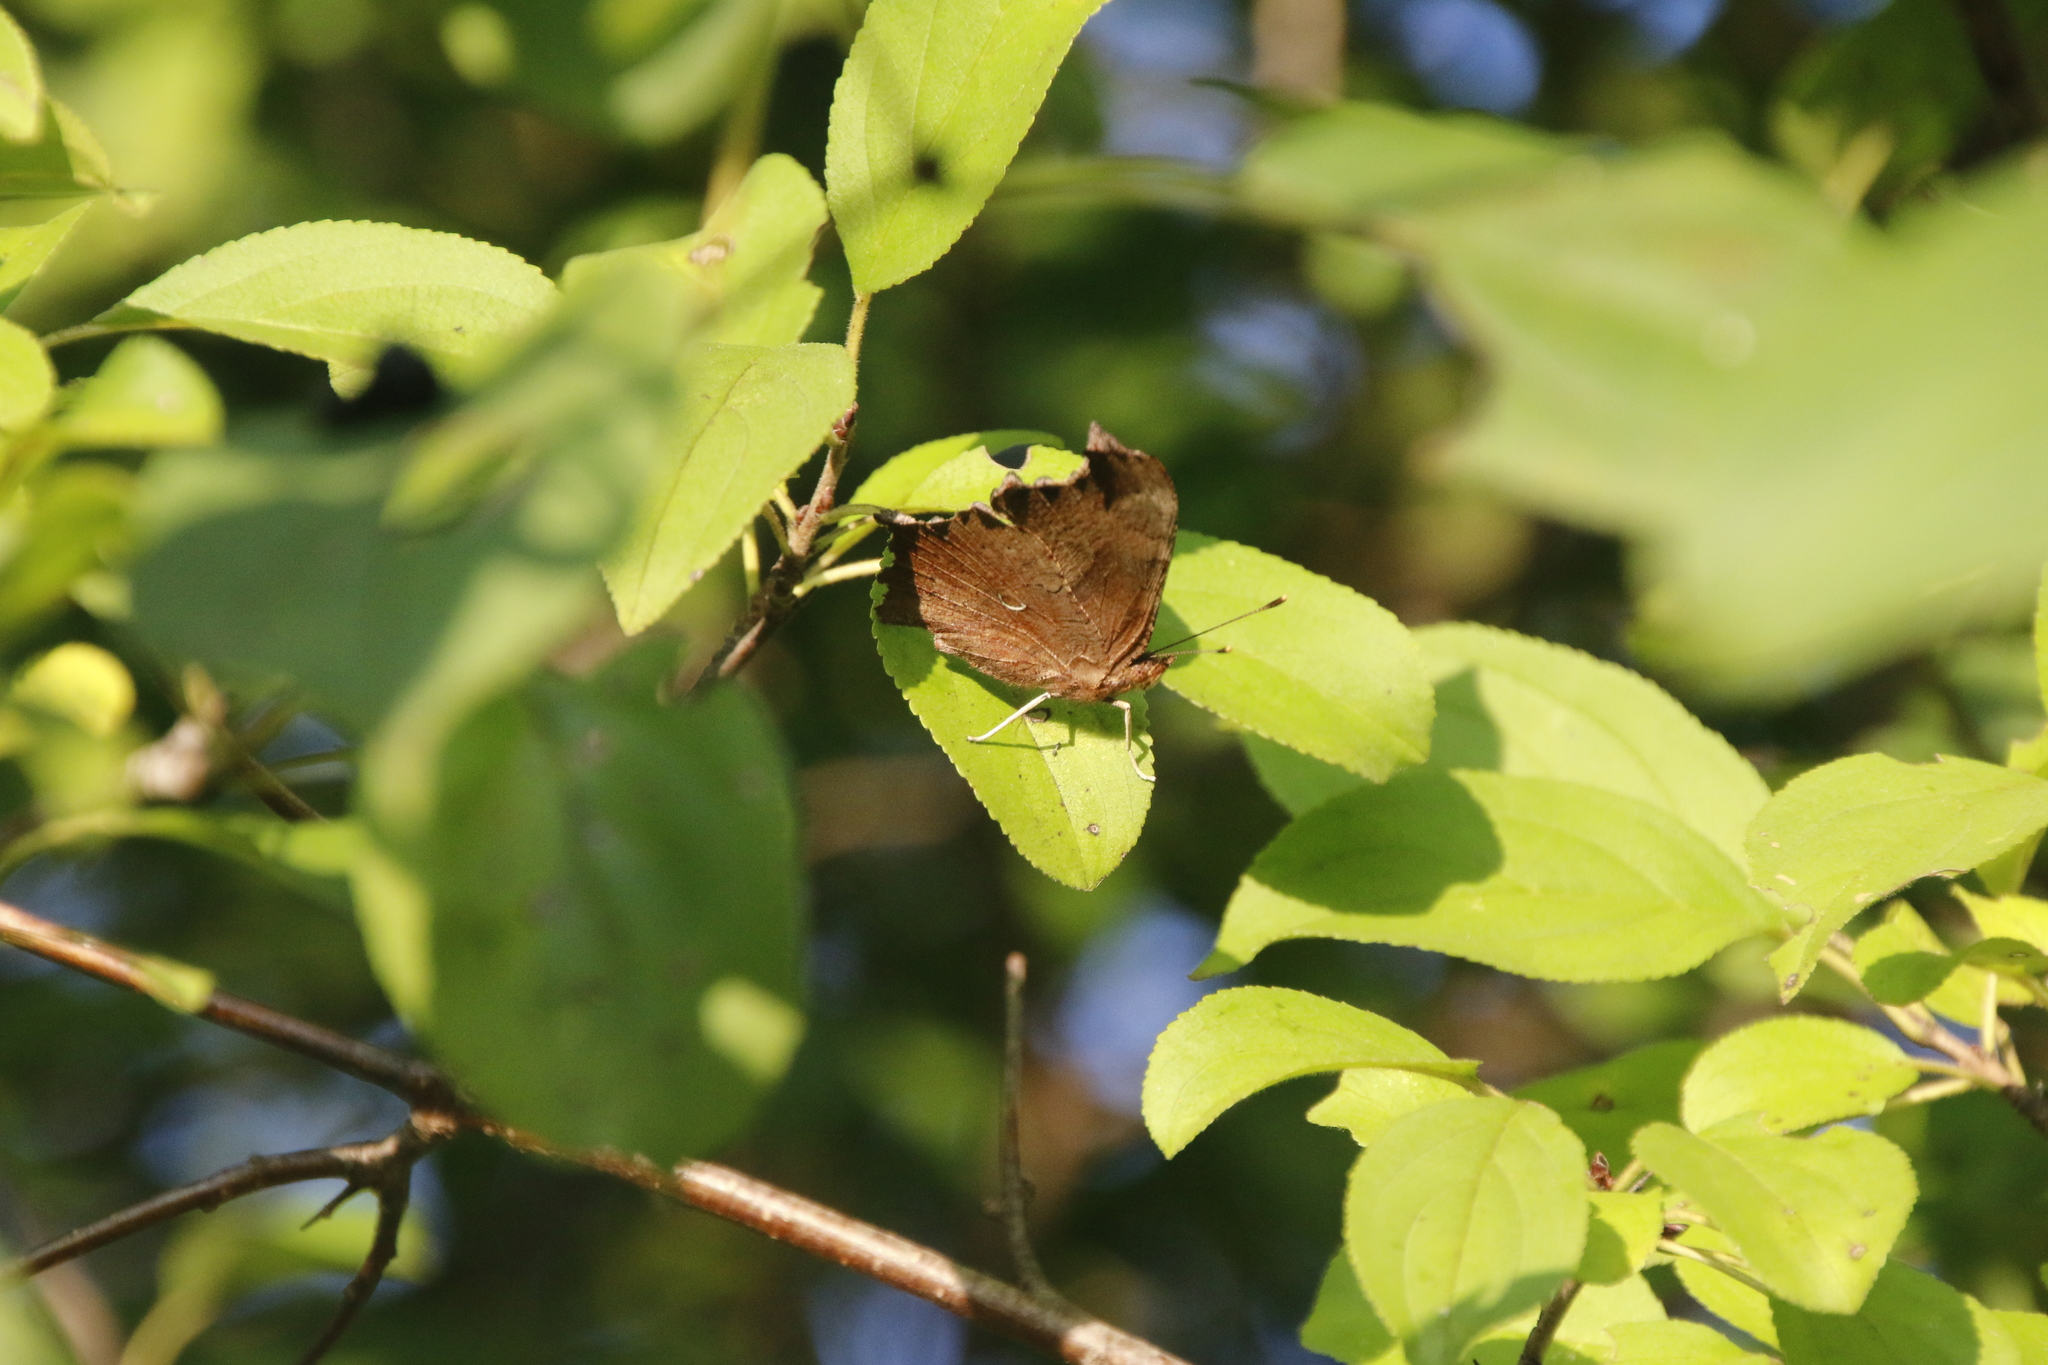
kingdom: Animalia
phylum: Arthropoda
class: Insecta
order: Lepidoptera
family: Nymphalidae
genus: Polygonia
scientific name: Polygonia comma
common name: Eastern comma
